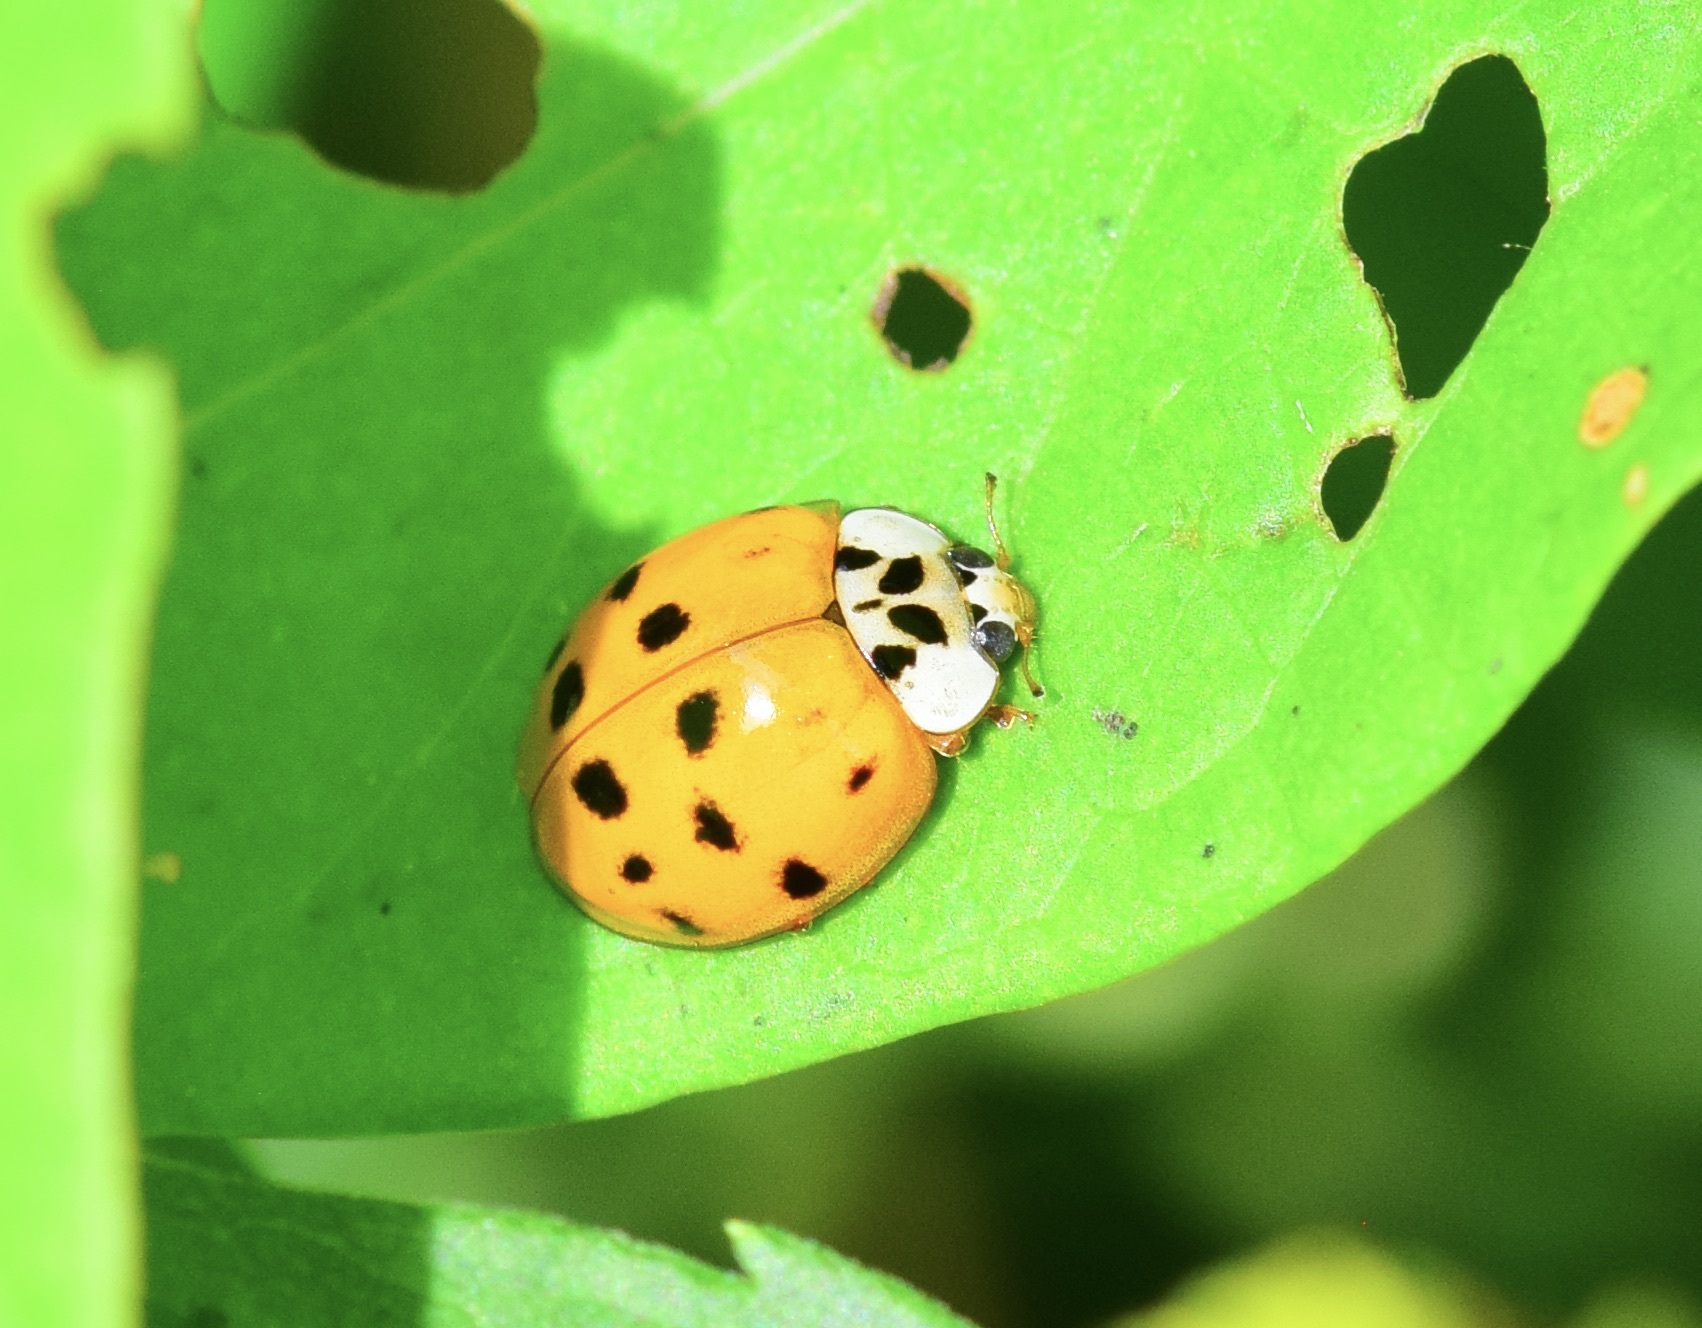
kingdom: Animalia
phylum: Arthropoda
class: Insecta
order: Coleoptera
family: Coccinellidae
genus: Harmonia
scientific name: Harmonia axyridis
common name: Harlequin ladybird
